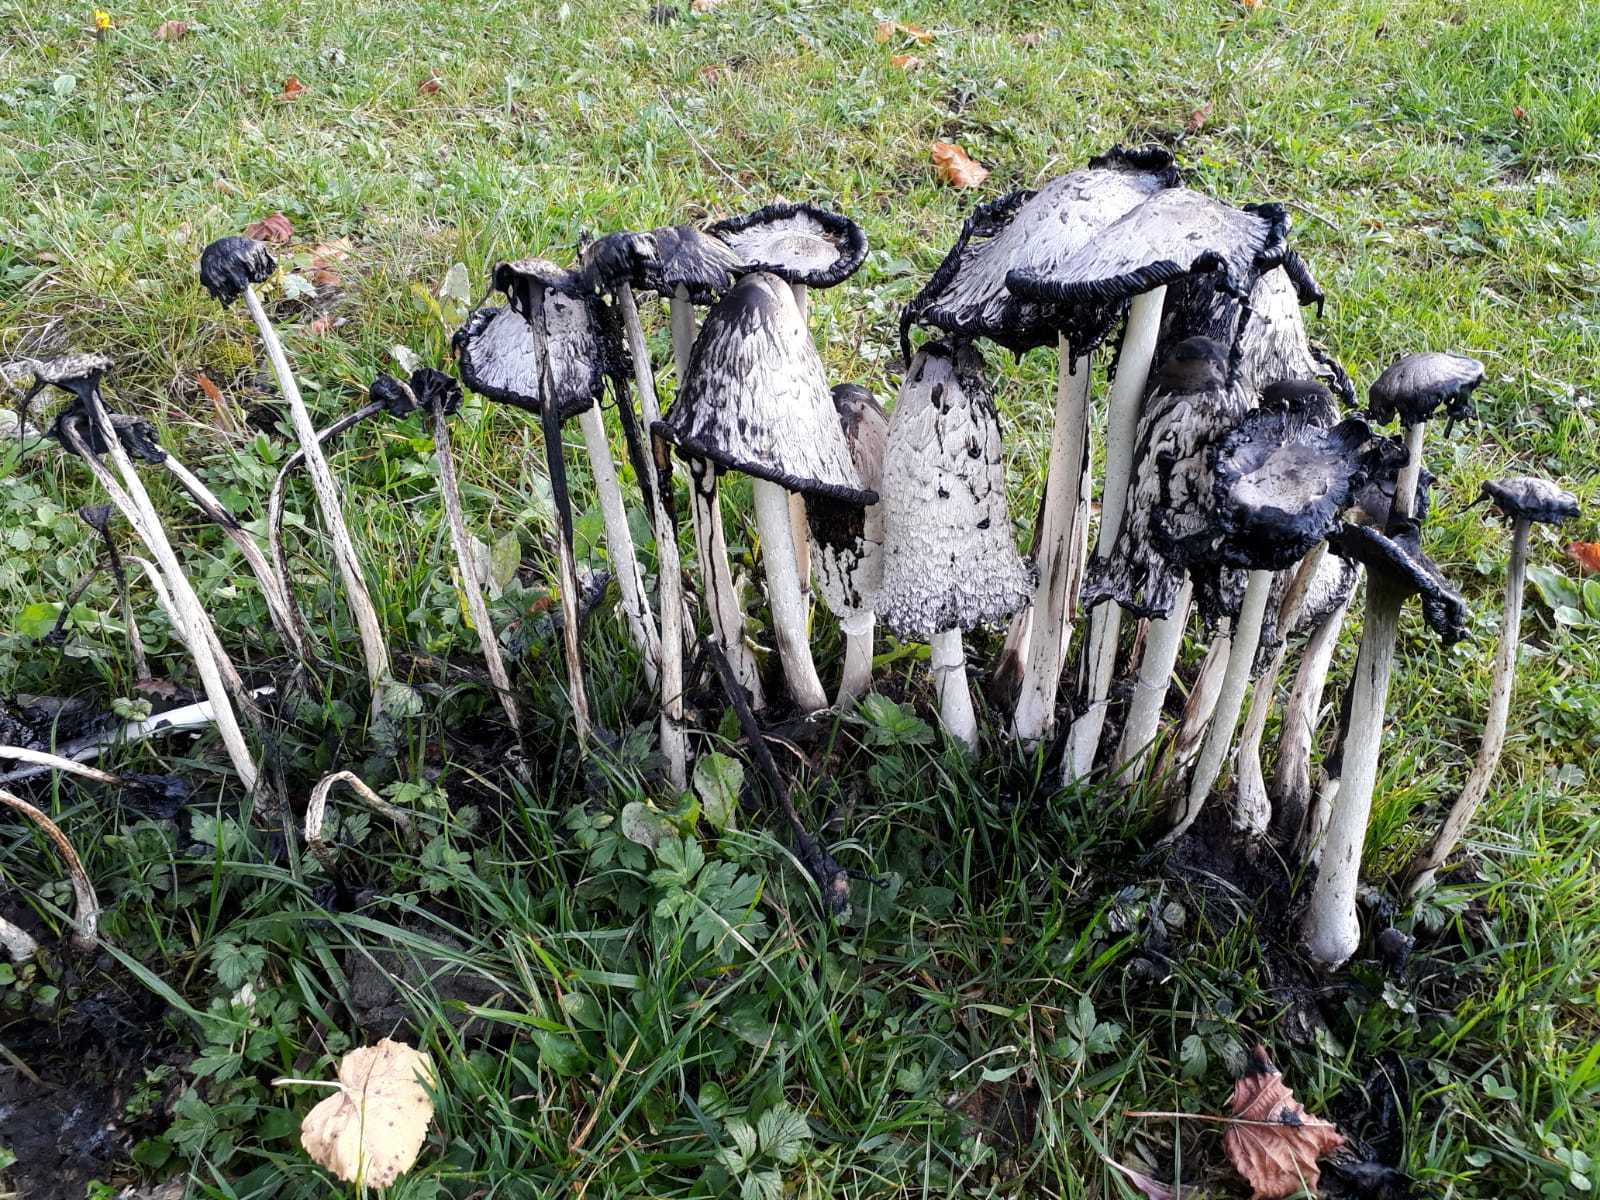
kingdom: Fungi
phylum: Basidiomycota
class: Agaricomycetes
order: Agaricales
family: Agaricaceae
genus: Coprinus
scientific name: Coprinus comatus
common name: Lawyer's wig
